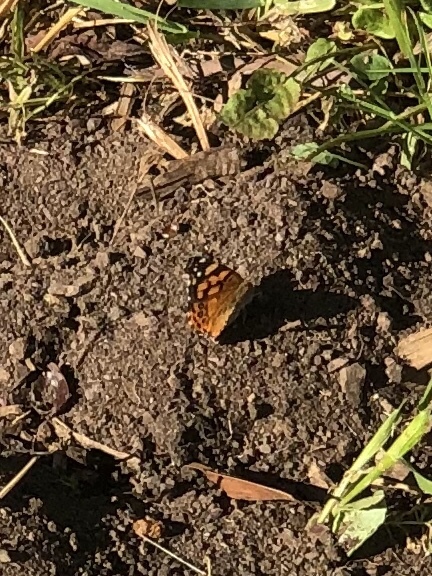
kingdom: Animalia
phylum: Arthropoda
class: Insecta
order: Lepidoptera
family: Nymphalidae
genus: Vanessa
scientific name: Vanessa annabella
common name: West coast lady
